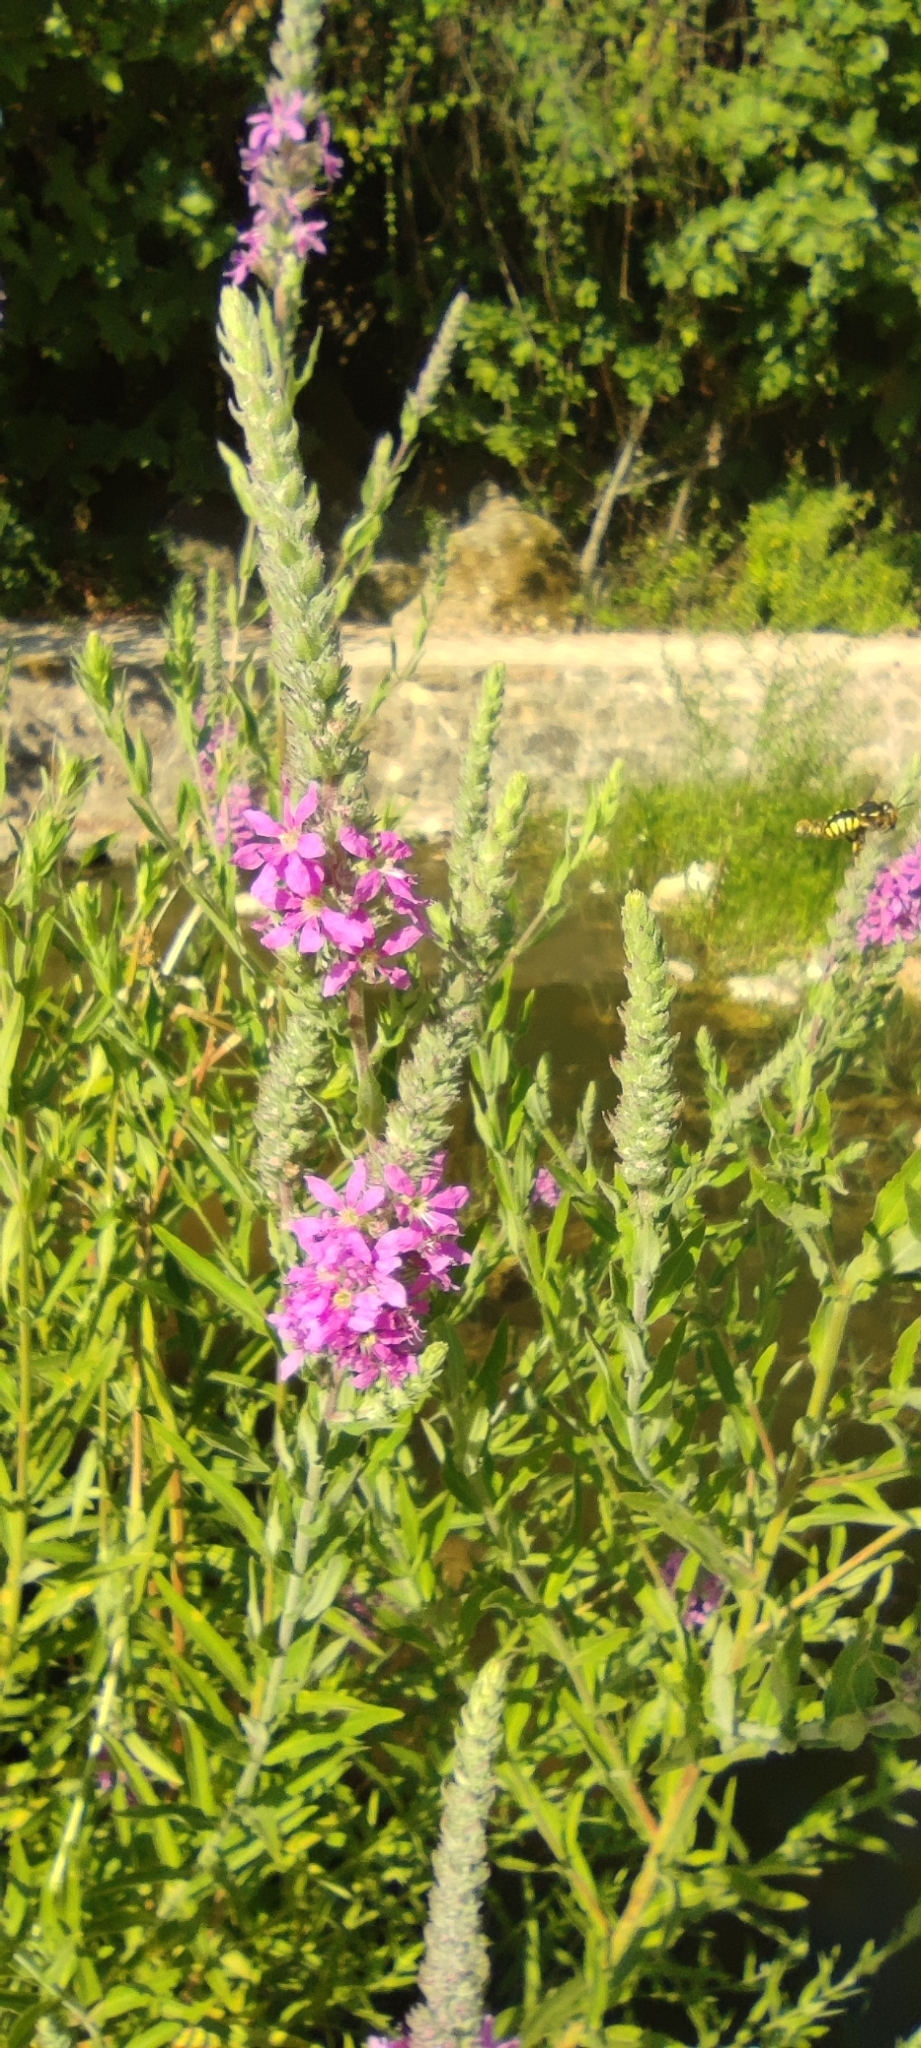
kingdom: Plantae
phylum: Tracheophyta
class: Magnoliopsida
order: Myrtales
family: Lythraceae
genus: Lythrum
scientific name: Lythrum salicaria
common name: Purple loosestrife
